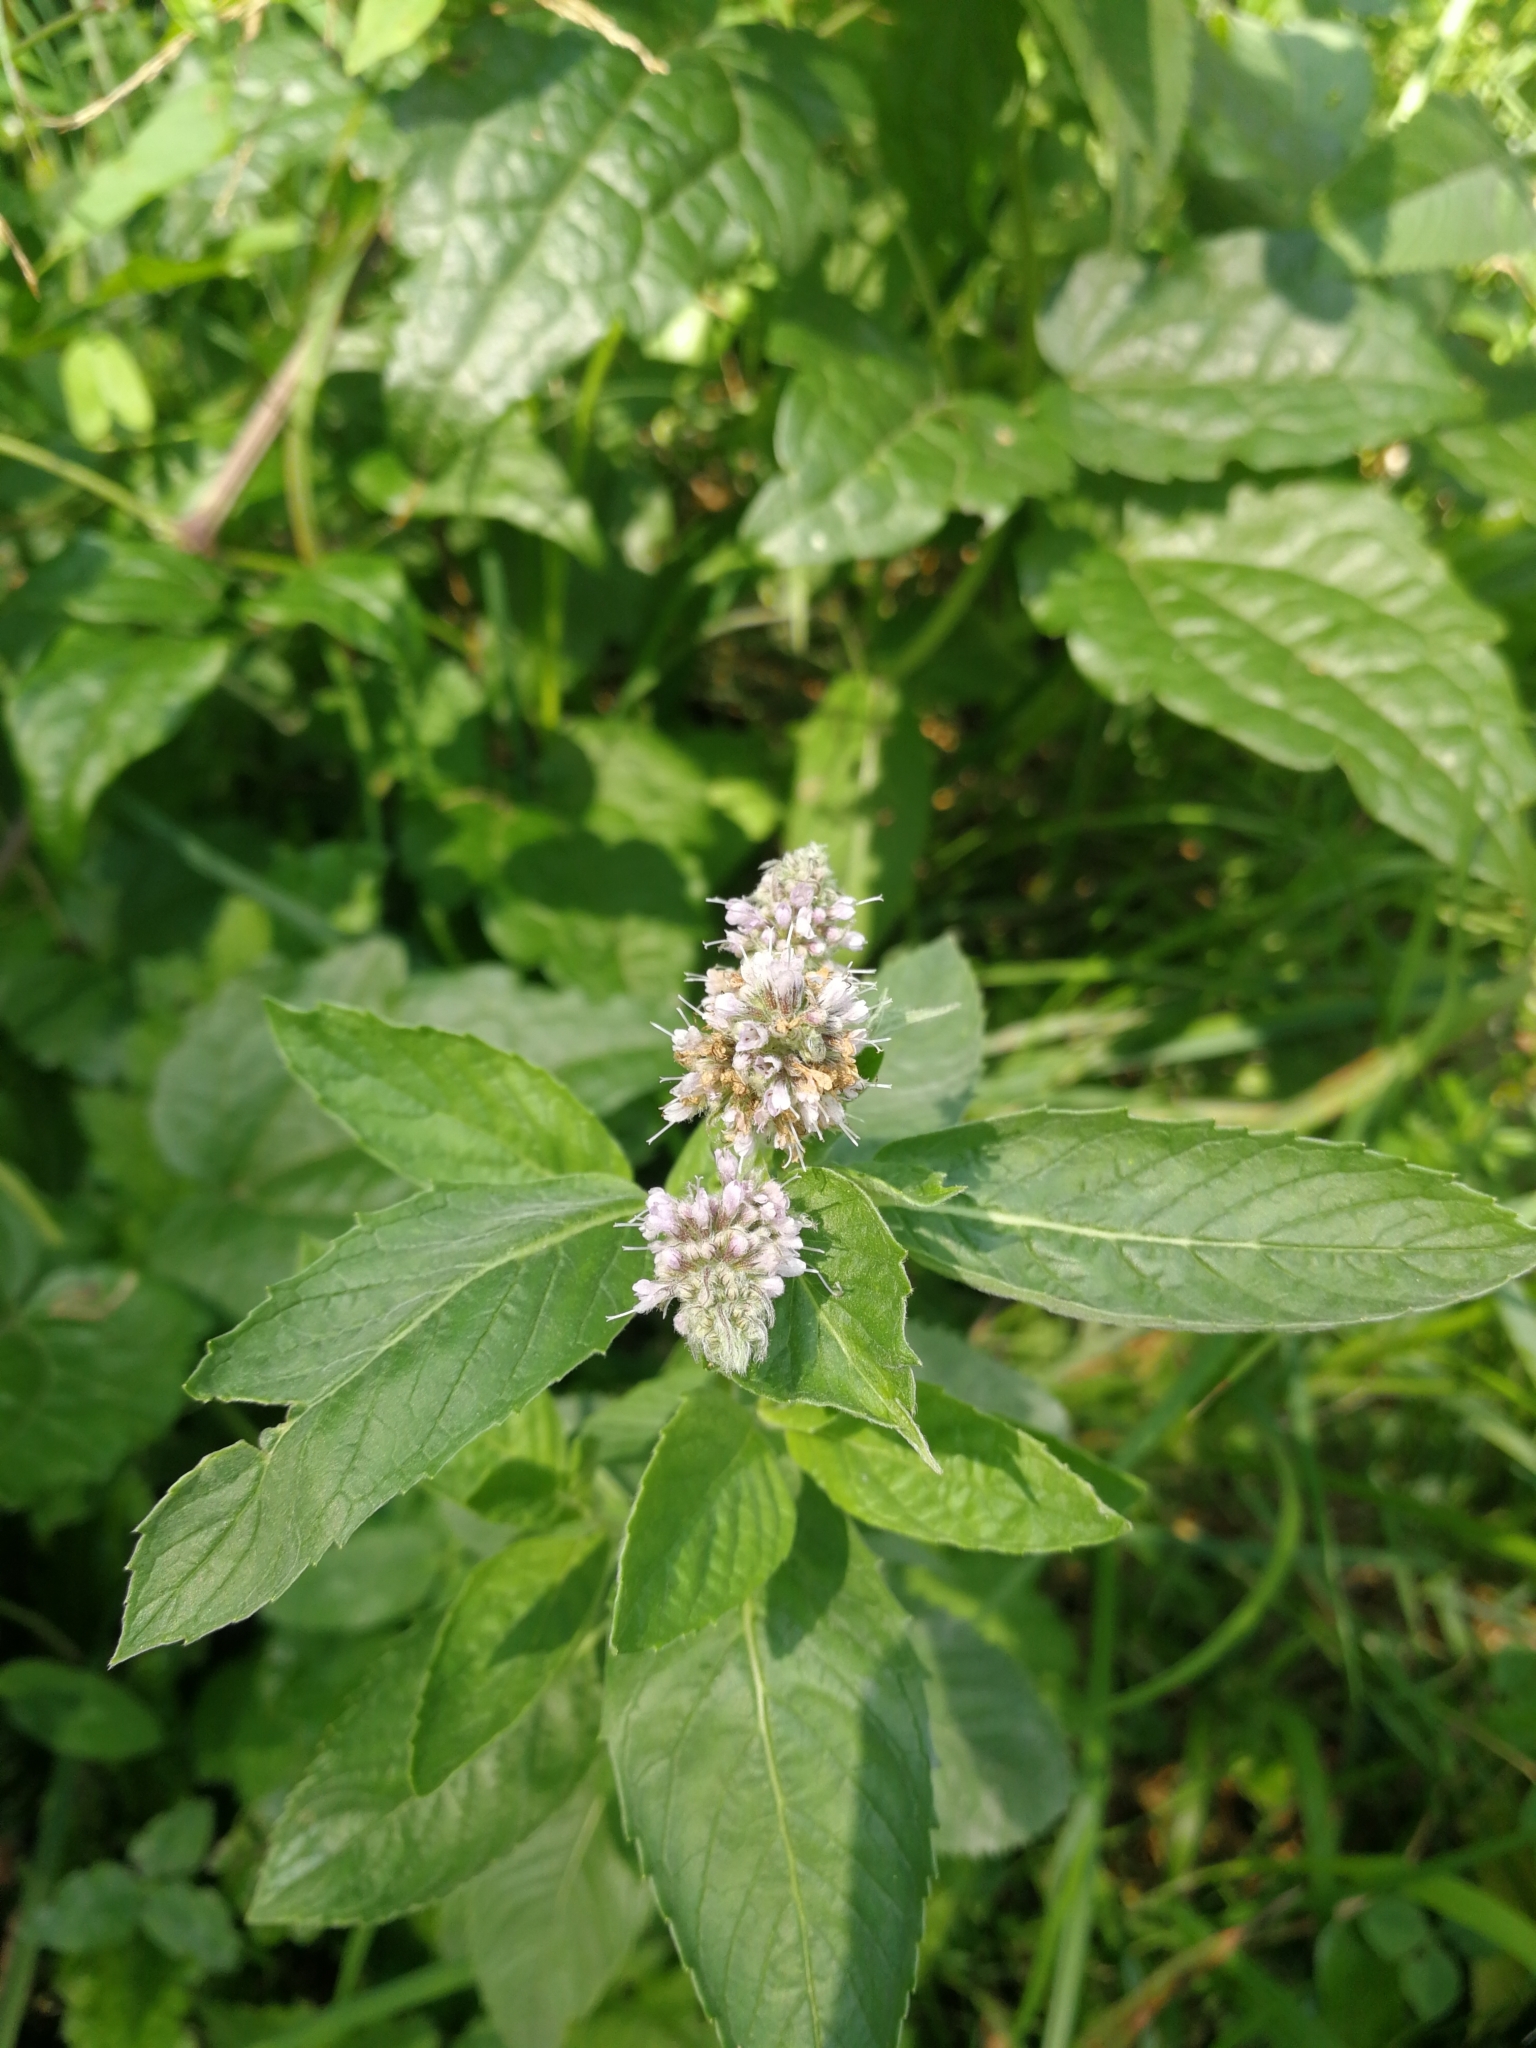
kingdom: Plantae
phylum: Tracheophyta
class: Magnoliopsida
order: Lamiales
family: Lamiaceae
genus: Mentha
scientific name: Mentha longifolia
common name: Horse mint
